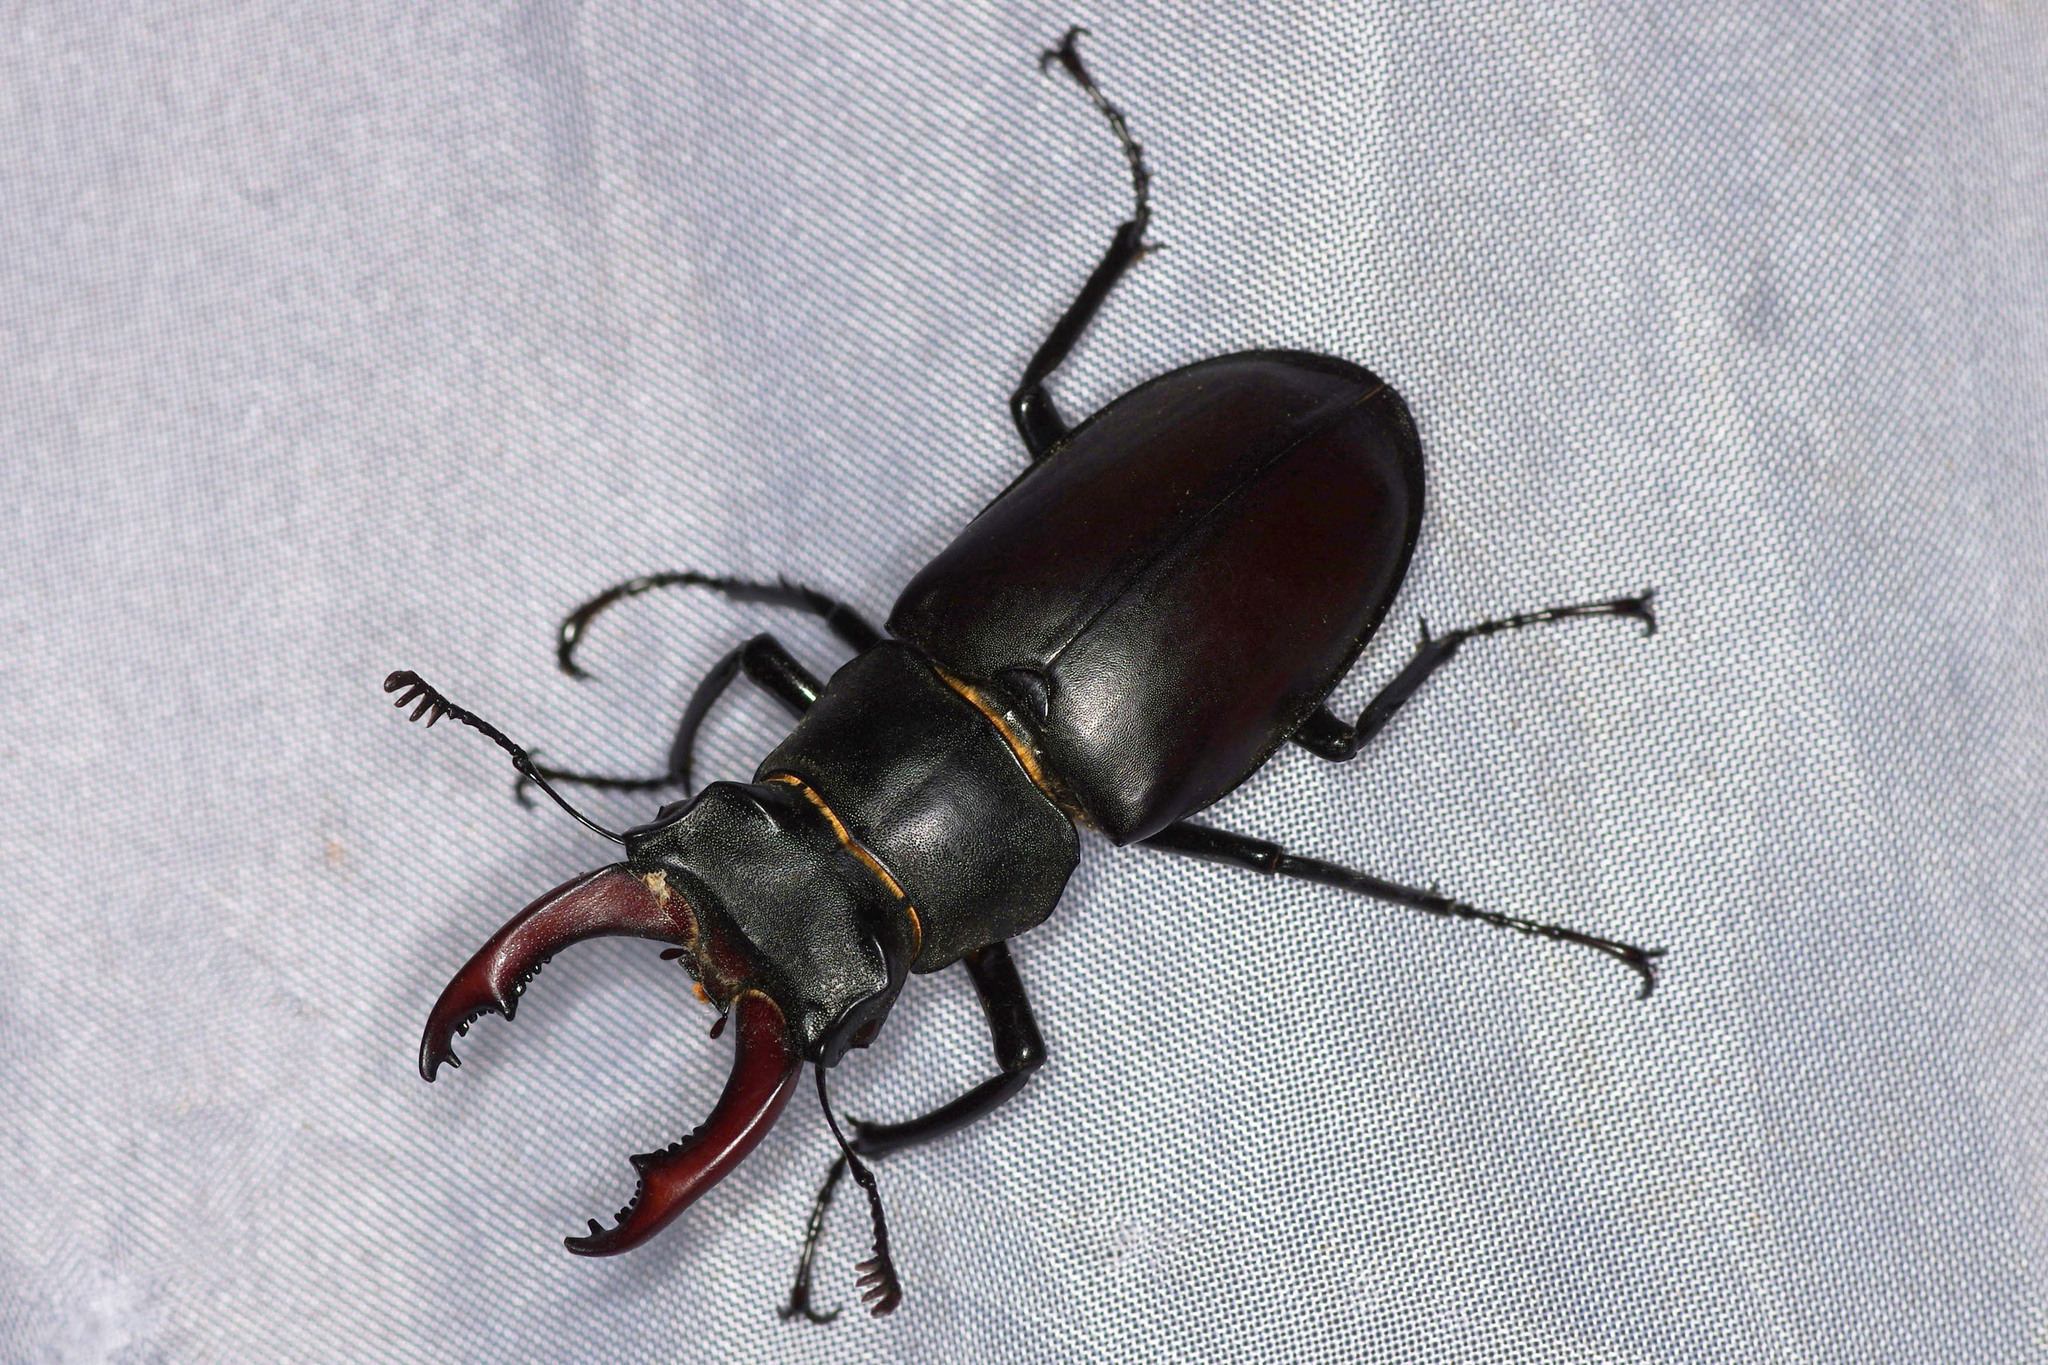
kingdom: Animalia
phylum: Arthropoda
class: Insecta
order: Coleoptera
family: Lucanidae
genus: Lucanus
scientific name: Lucanus cervus
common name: Stag beetle
